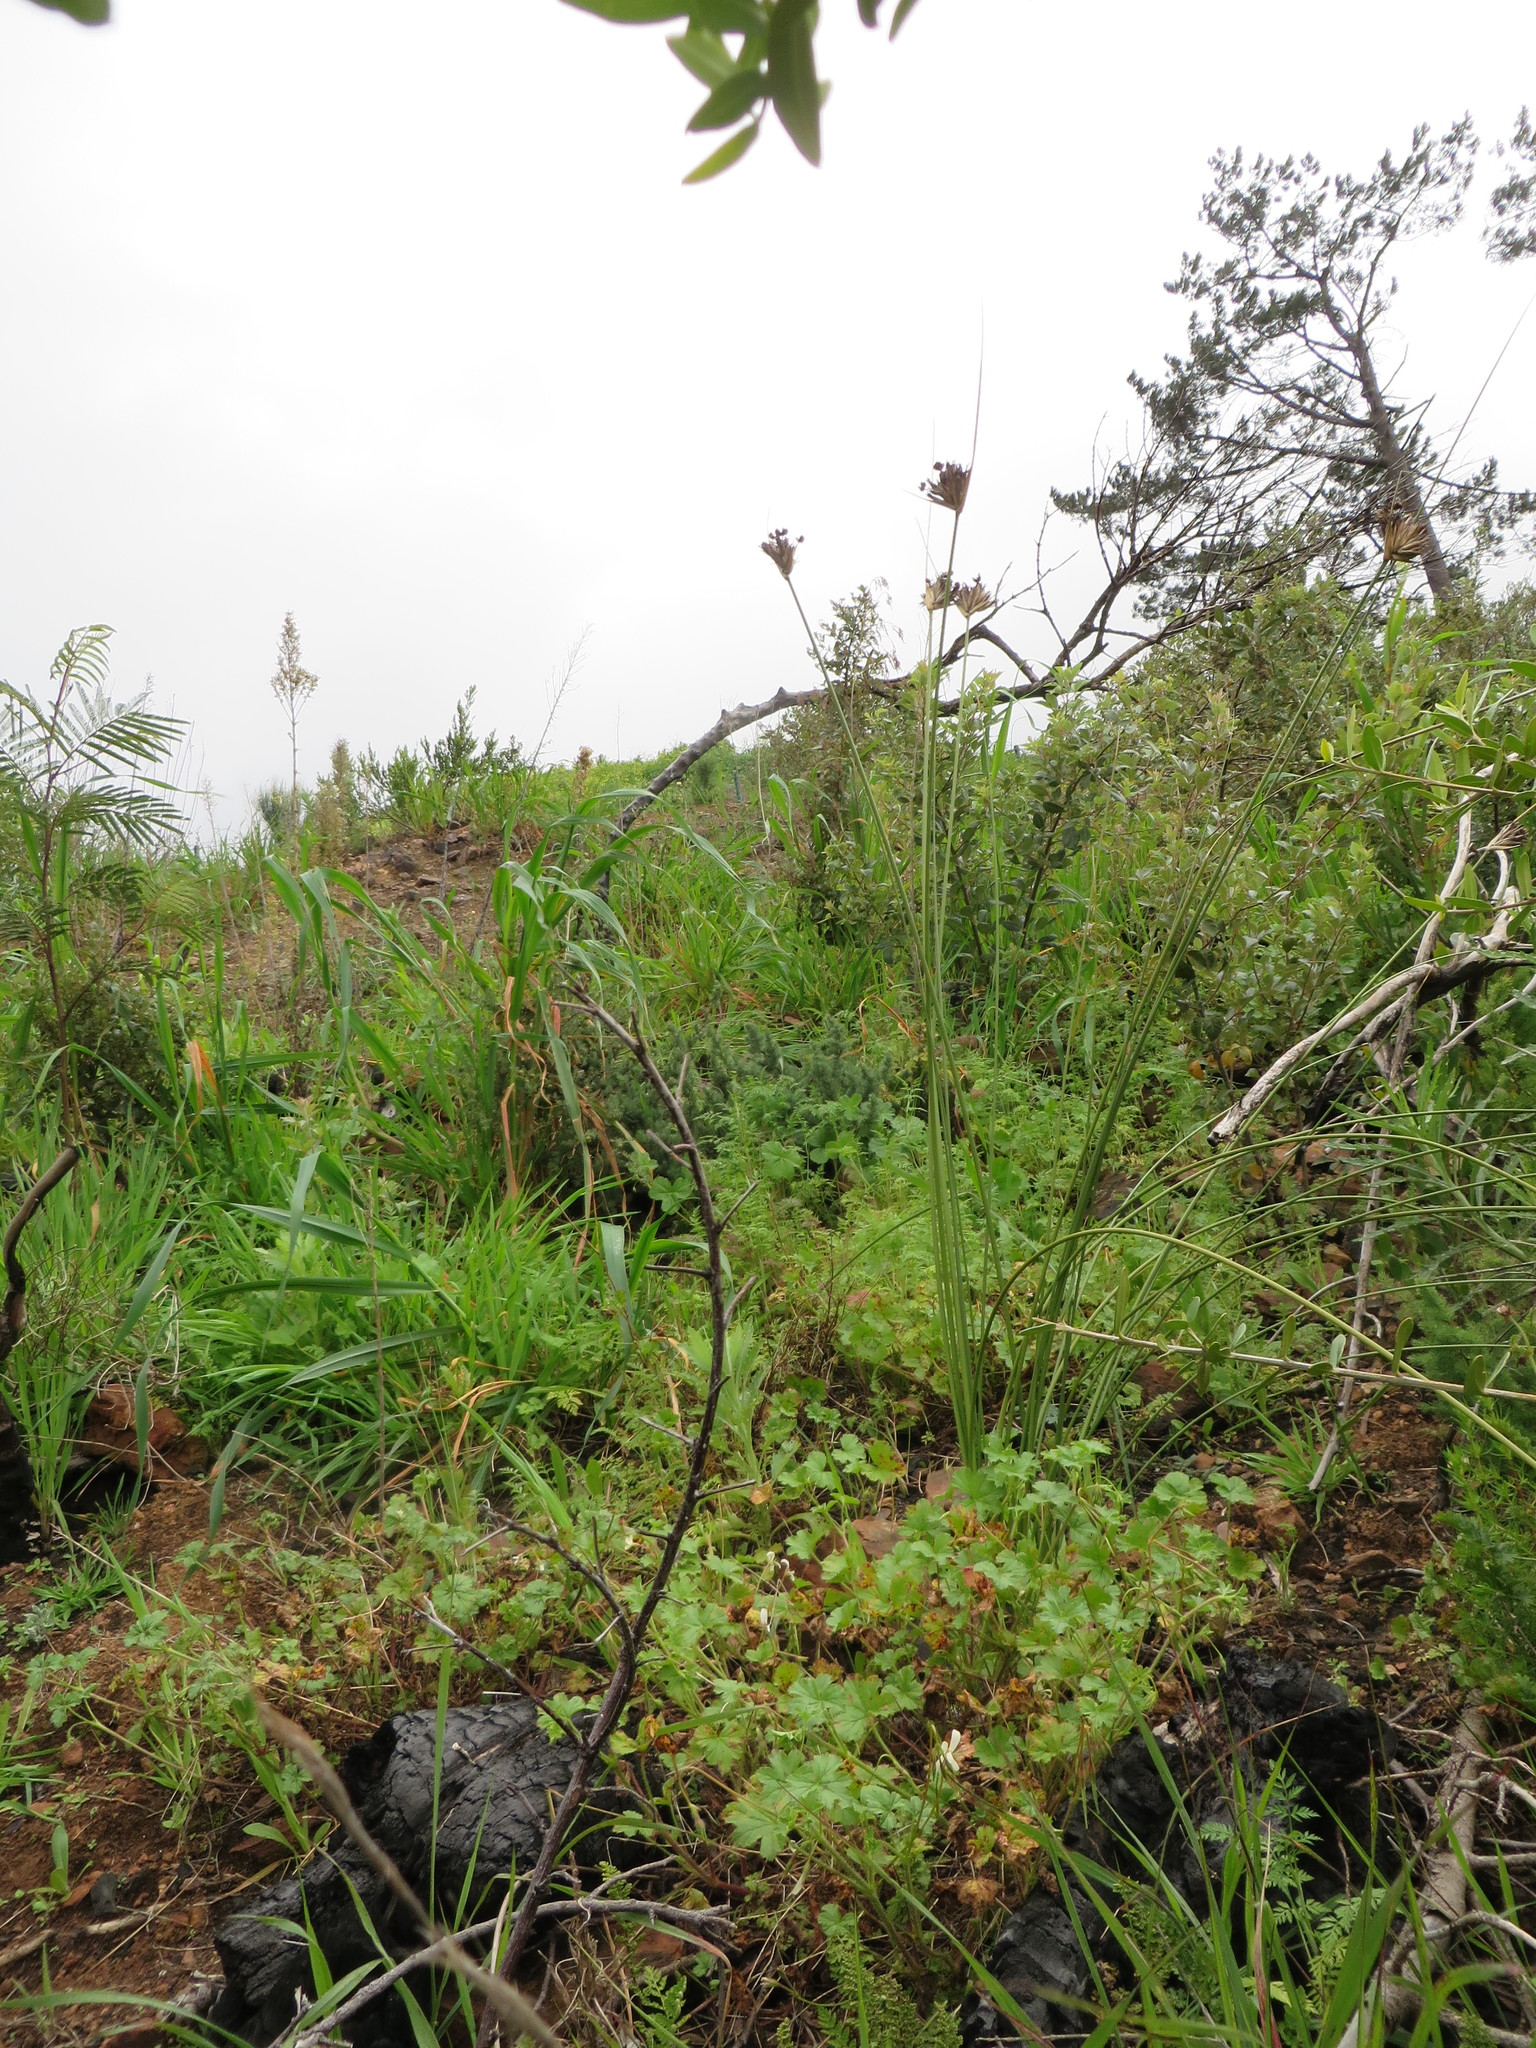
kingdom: Plantae
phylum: Tracheophyta
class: Liliopsida
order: Asparagales
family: Iridaceae
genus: Bobartia
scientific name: Bobartia indica
